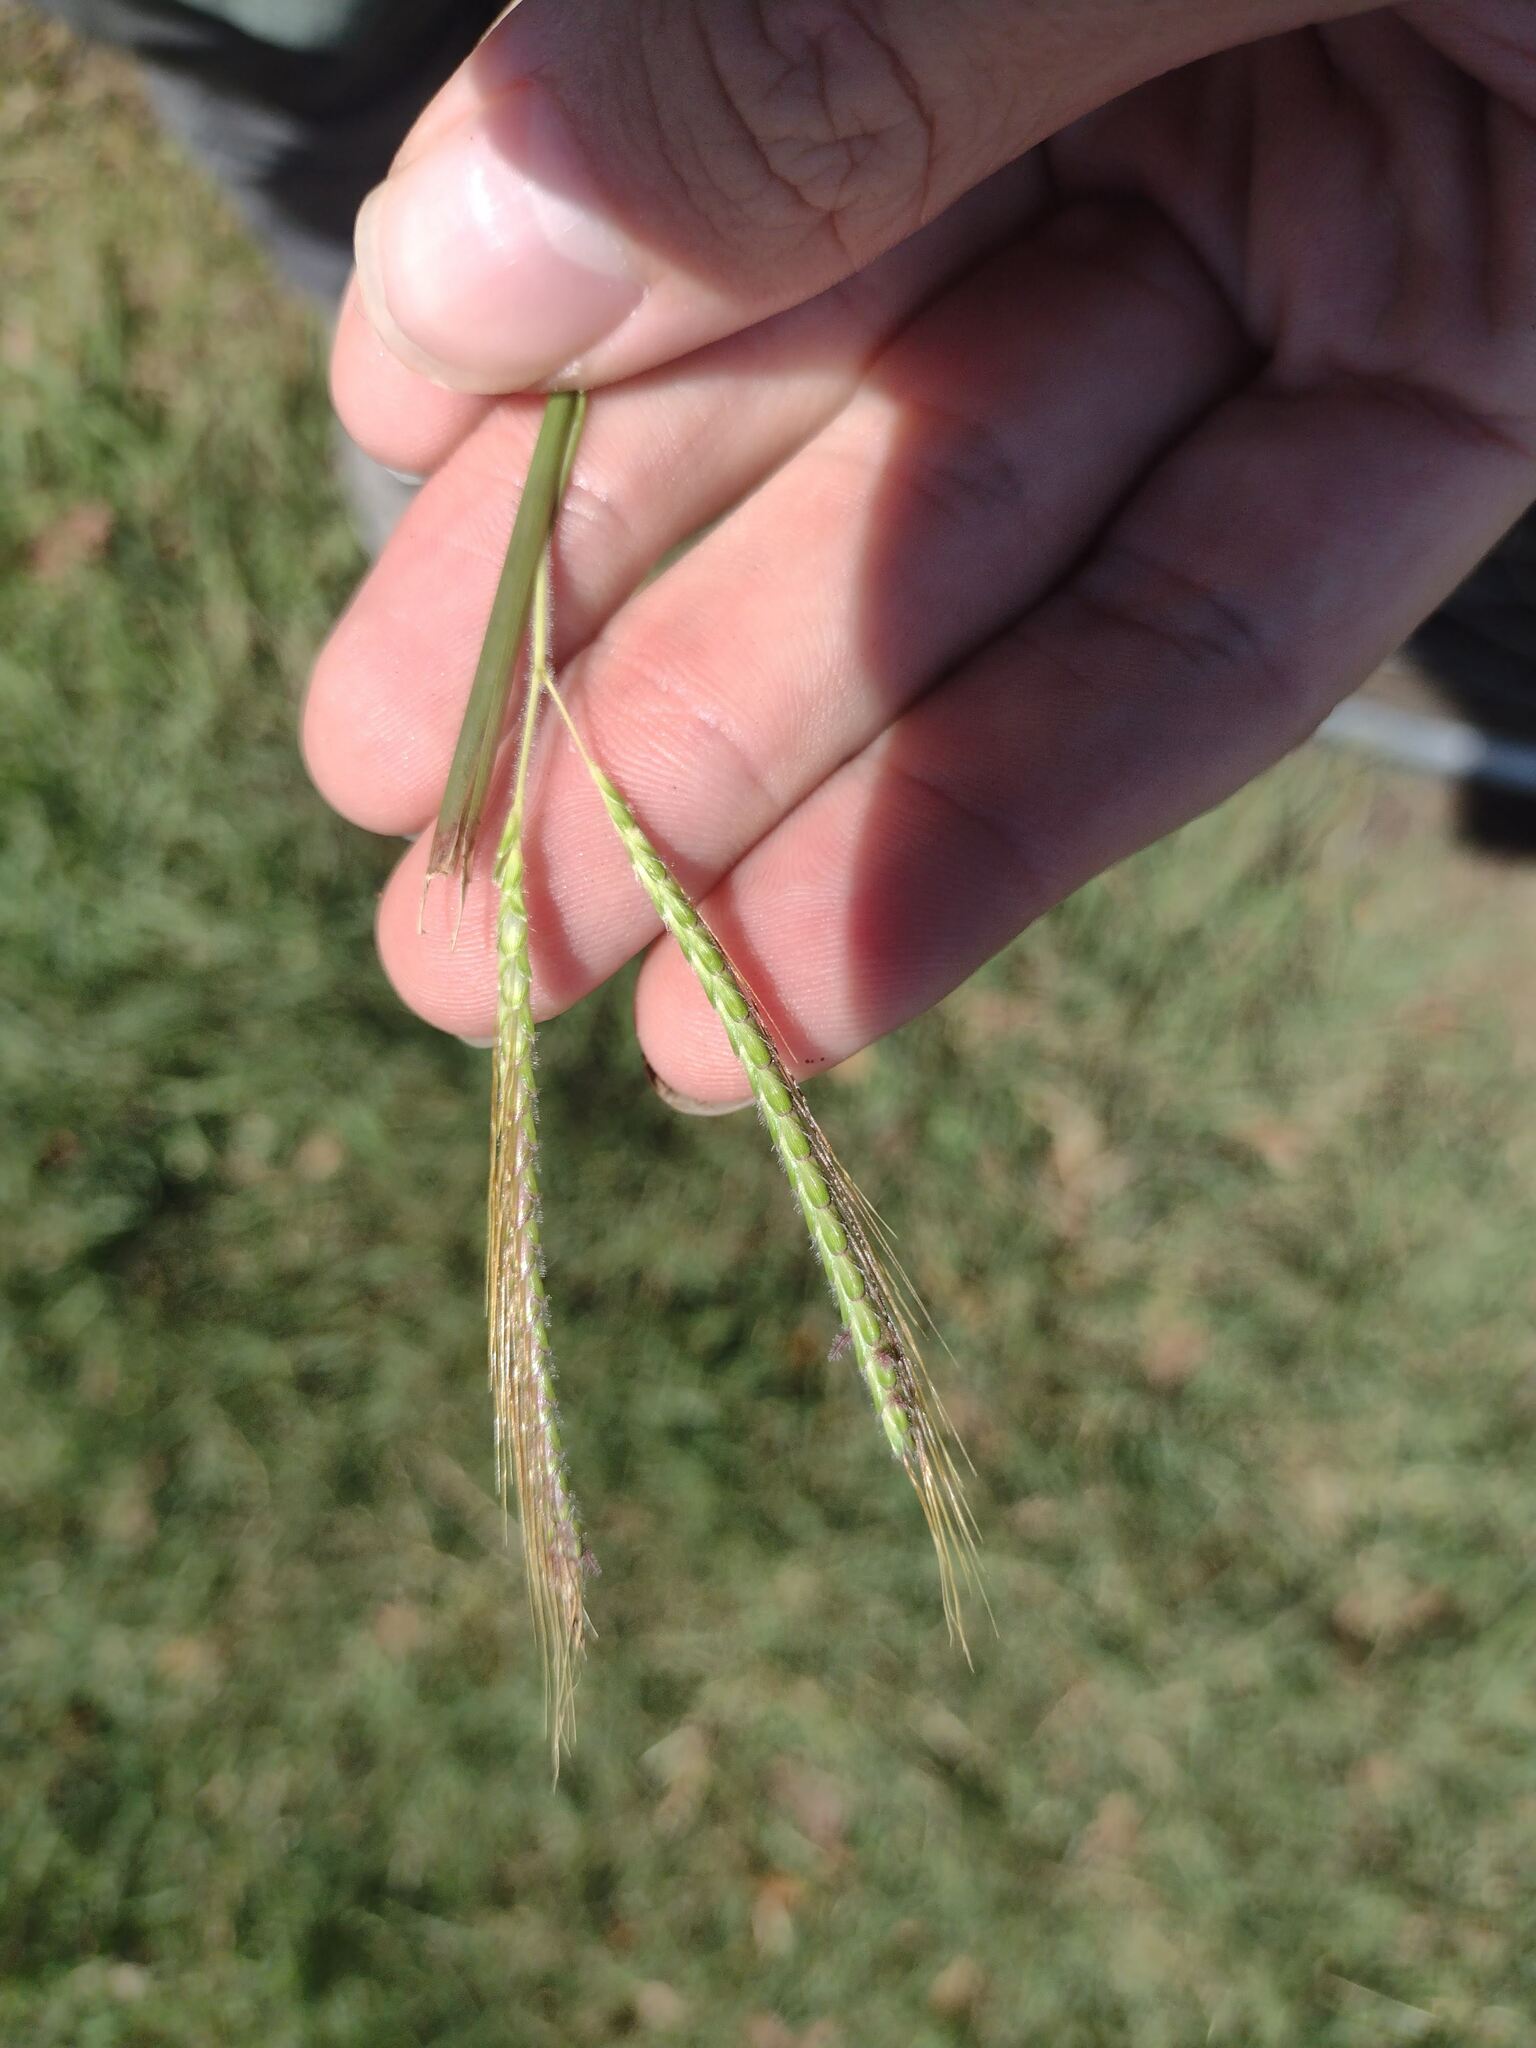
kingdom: Plantae
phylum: Tracheophyta
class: Liliopsida
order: Poales
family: Poaceae
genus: Dichanthium
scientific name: Dichanthium aristatum
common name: Angleton bluestem
